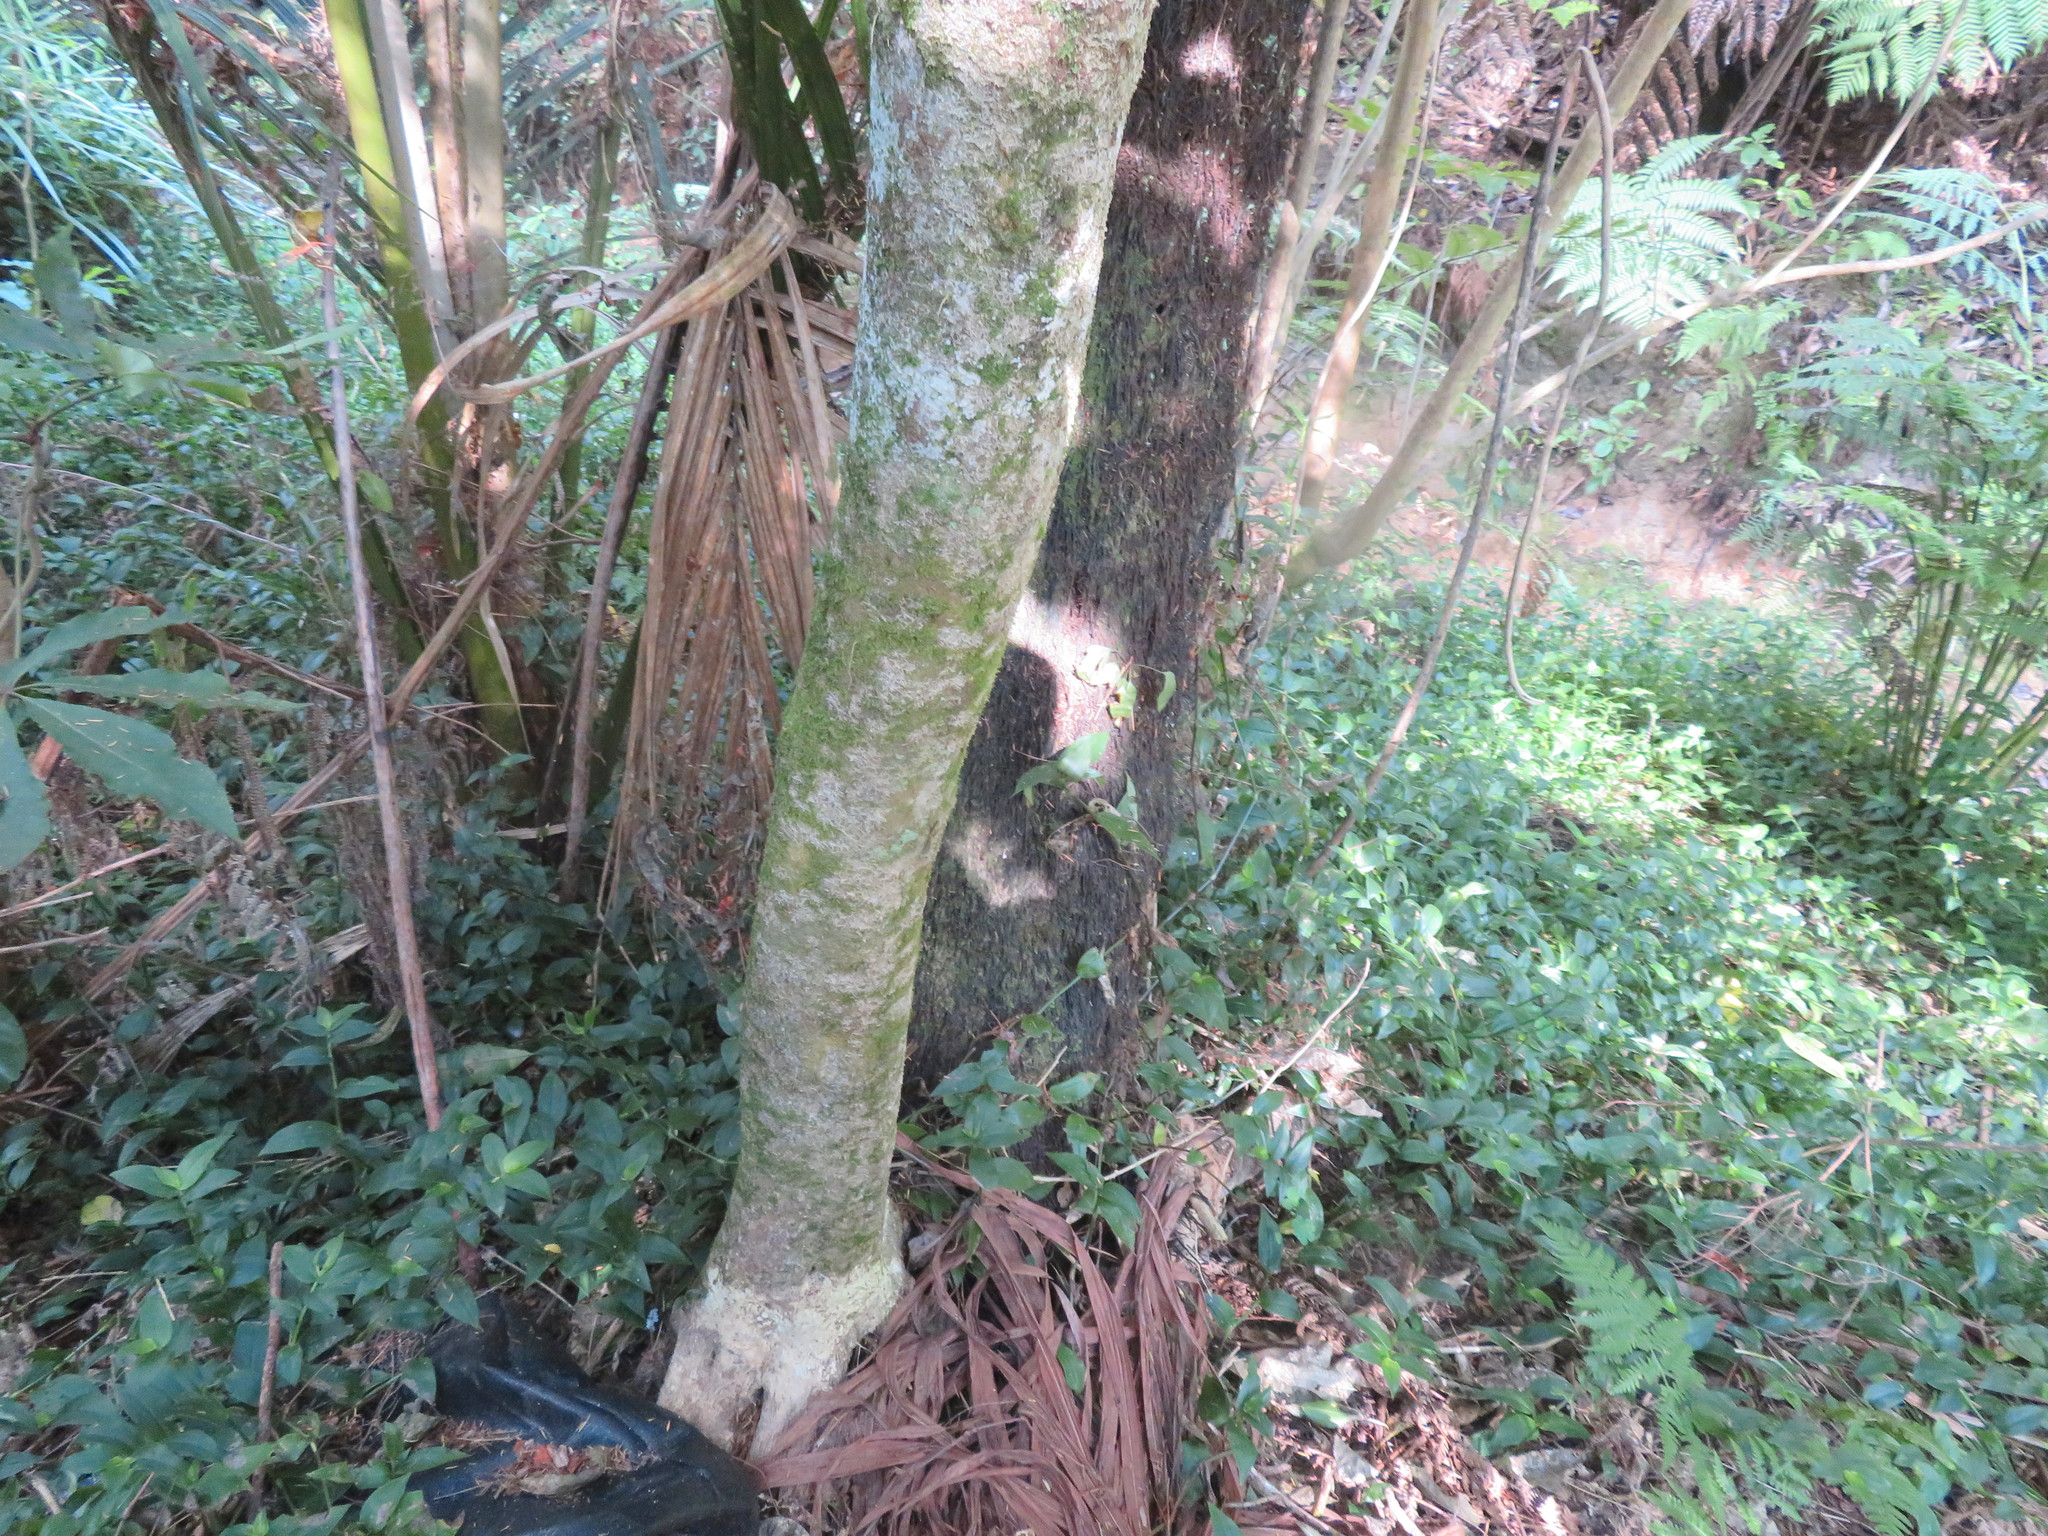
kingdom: Plantae
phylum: Tracheophyta
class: Liliopsida
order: Commelinales
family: Commelinaceae
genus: Tradescantia
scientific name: Tradescantia fluminensis
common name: Wandering-jew
